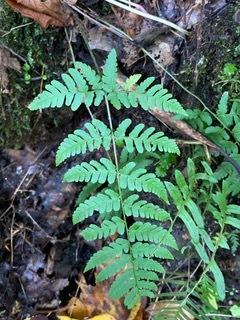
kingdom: Plantae
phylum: Tracheophyta
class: Polypodiopsida
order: Polypodiales
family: Dryopteridaceae
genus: Dryopteris
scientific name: Dryopteris marginalis
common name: Marginal wood fern
